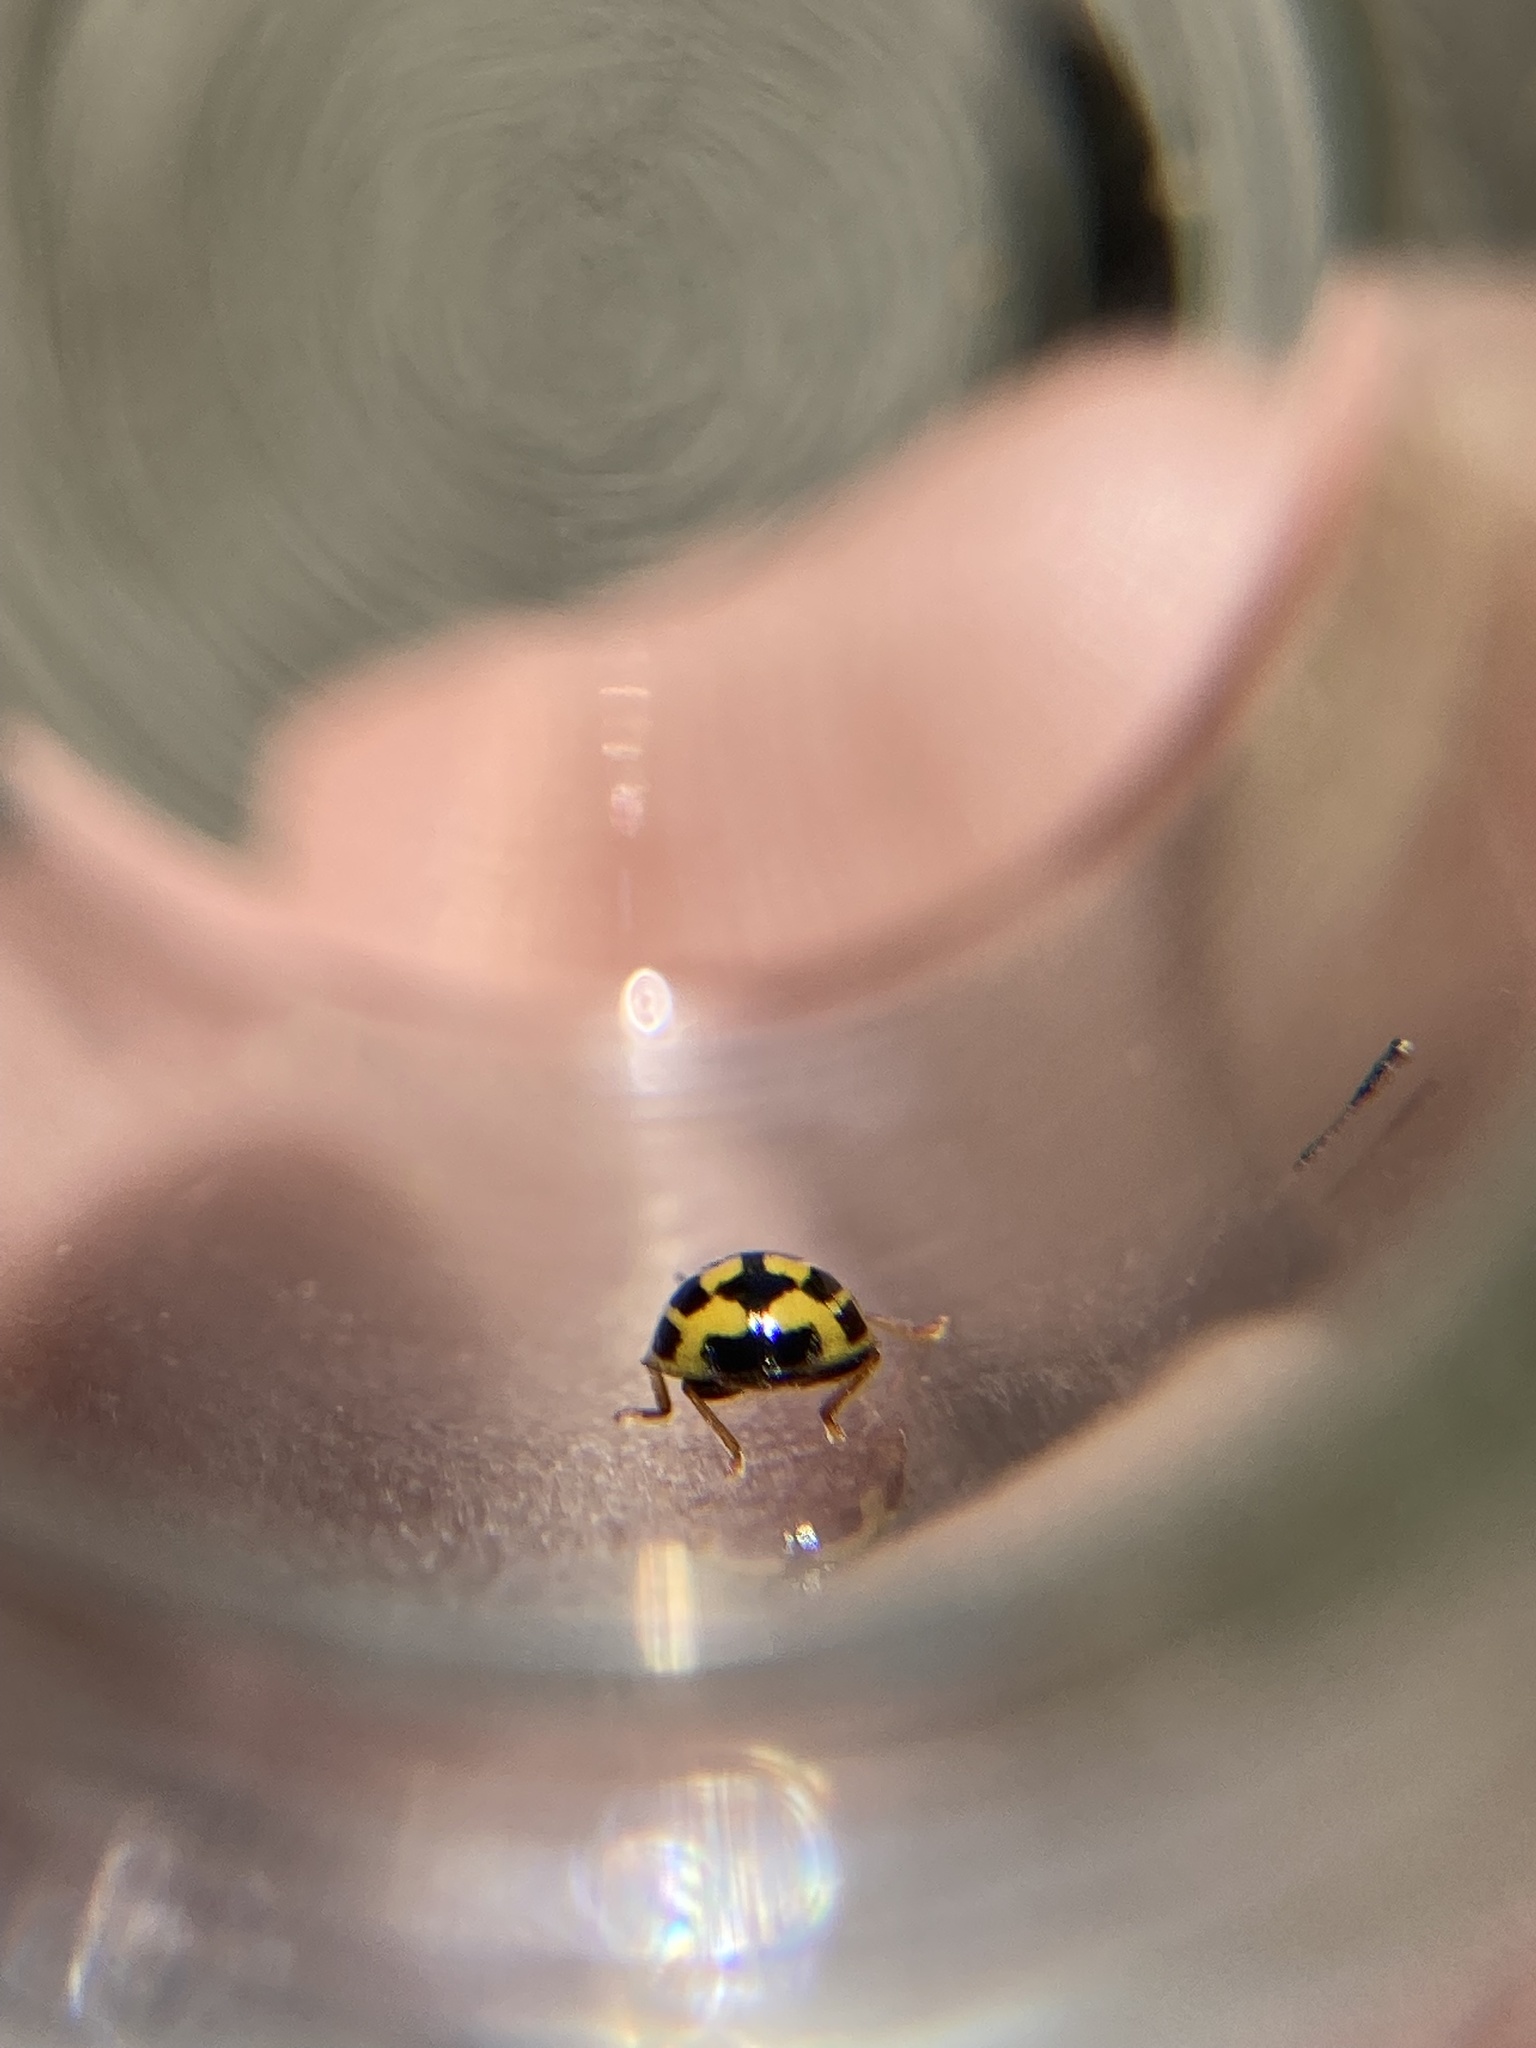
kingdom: Animalia
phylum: Arthropoda
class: Insecta
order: Coleoptera
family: Coccinellidae
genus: Propylaea
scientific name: Propylaea quatuordecimpunctata
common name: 14-spotted ladybird beetle
